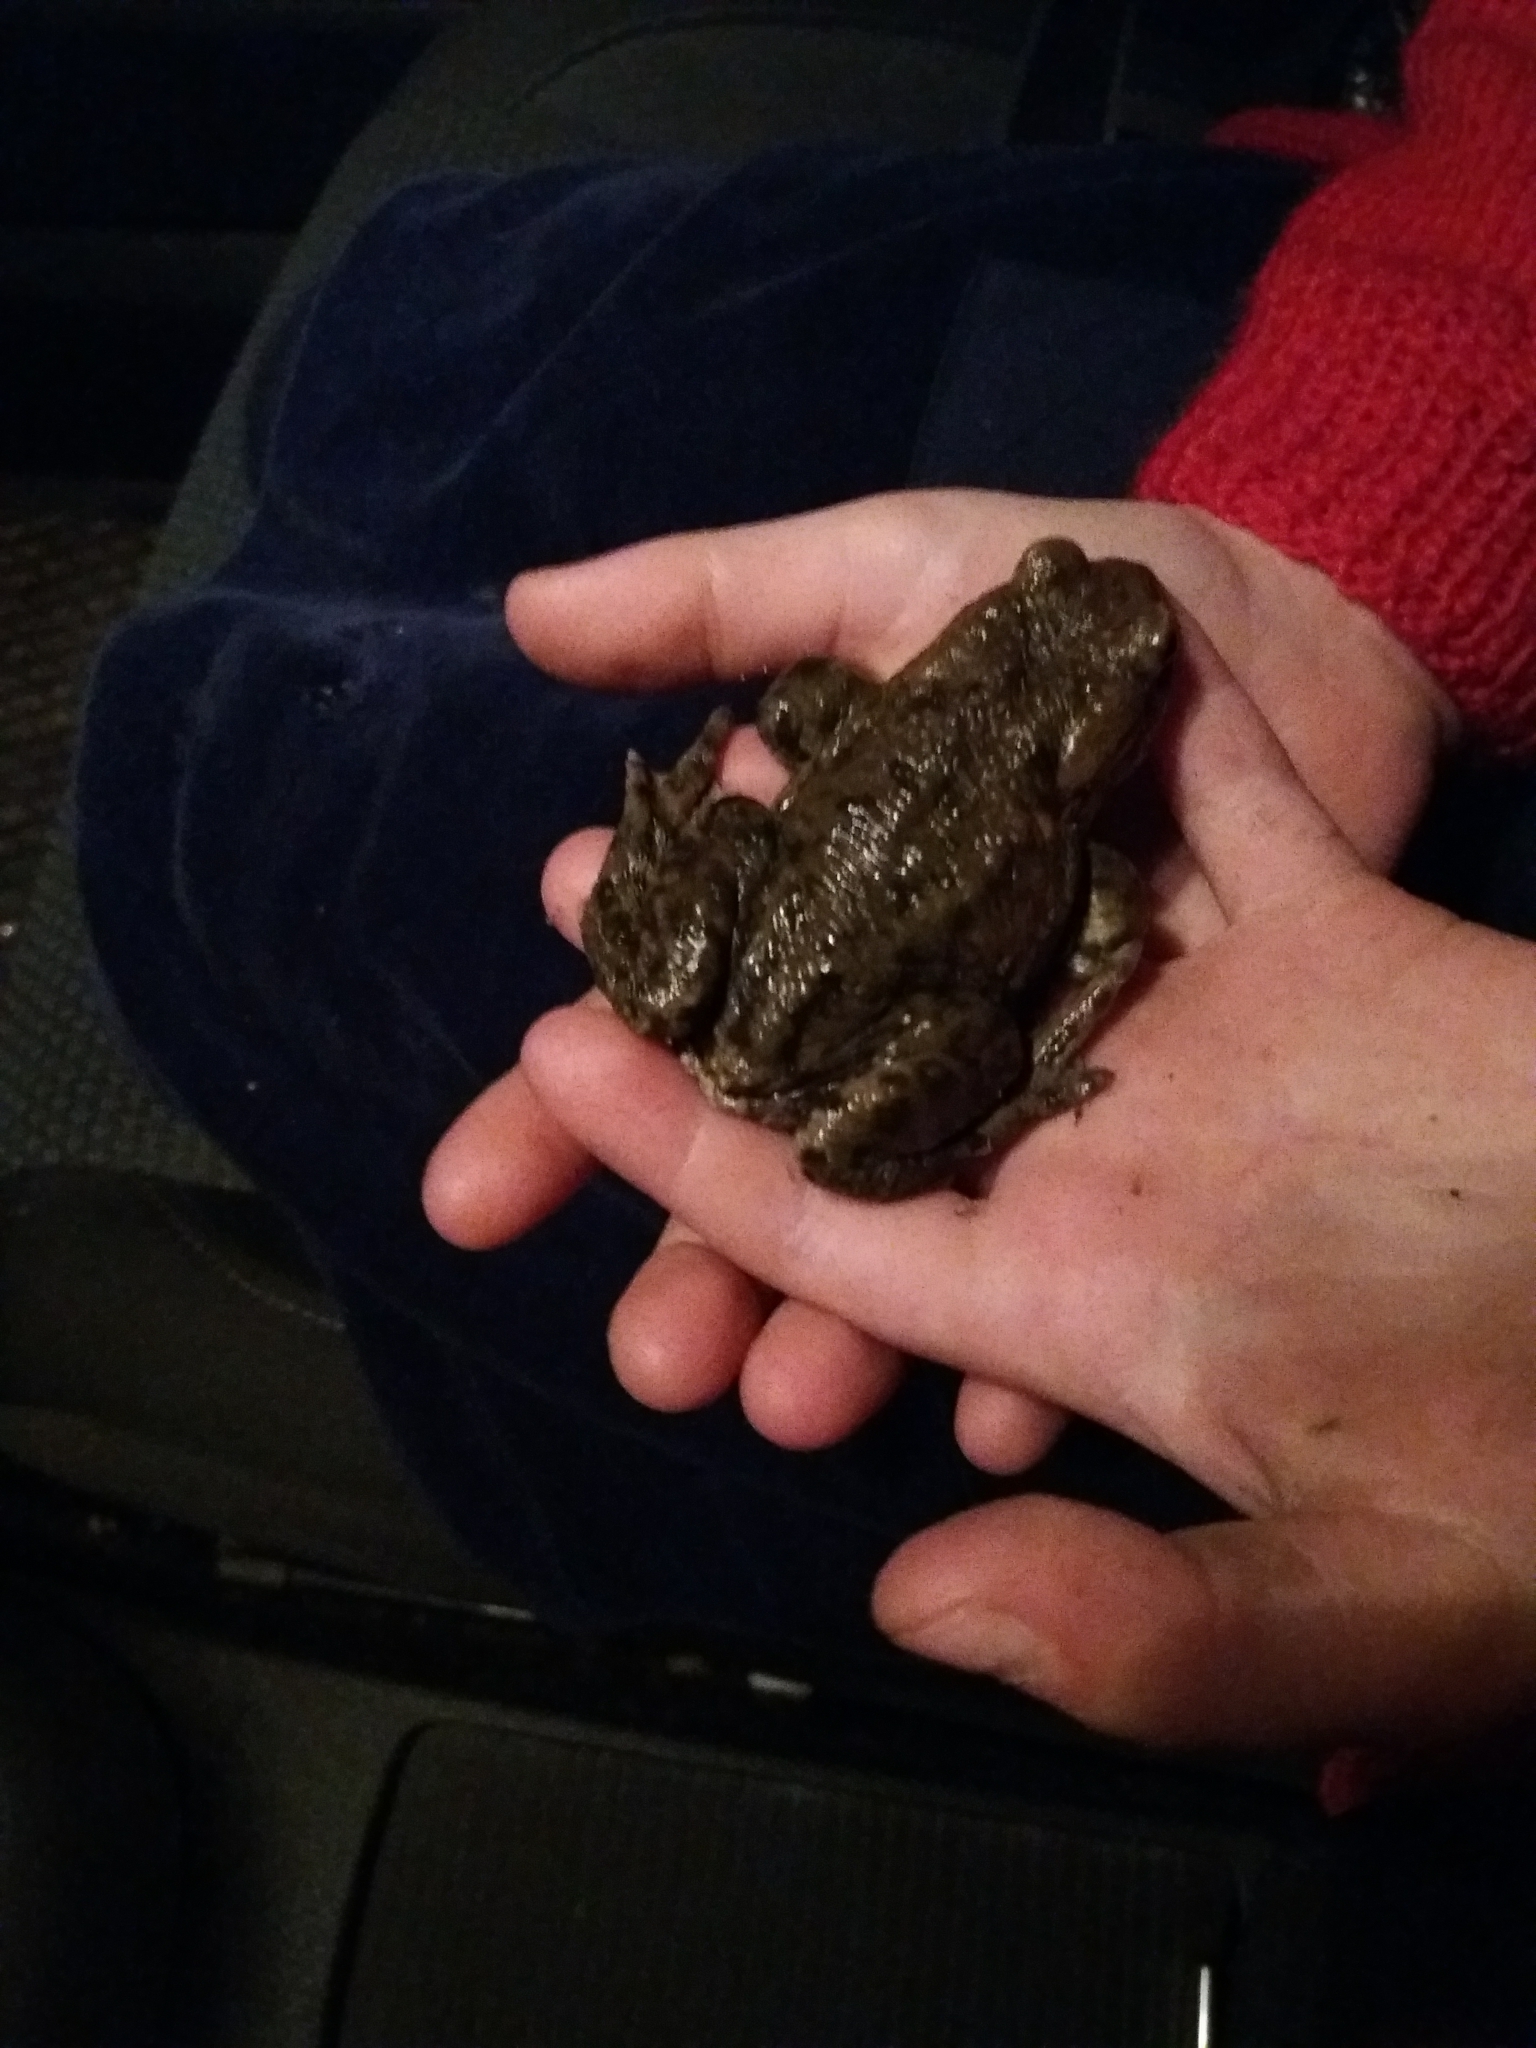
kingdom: Animalia
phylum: Chordata
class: Amphibia
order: Anura
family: Bufonidae
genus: Bufo
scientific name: Bufo bufo
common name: Common toad
